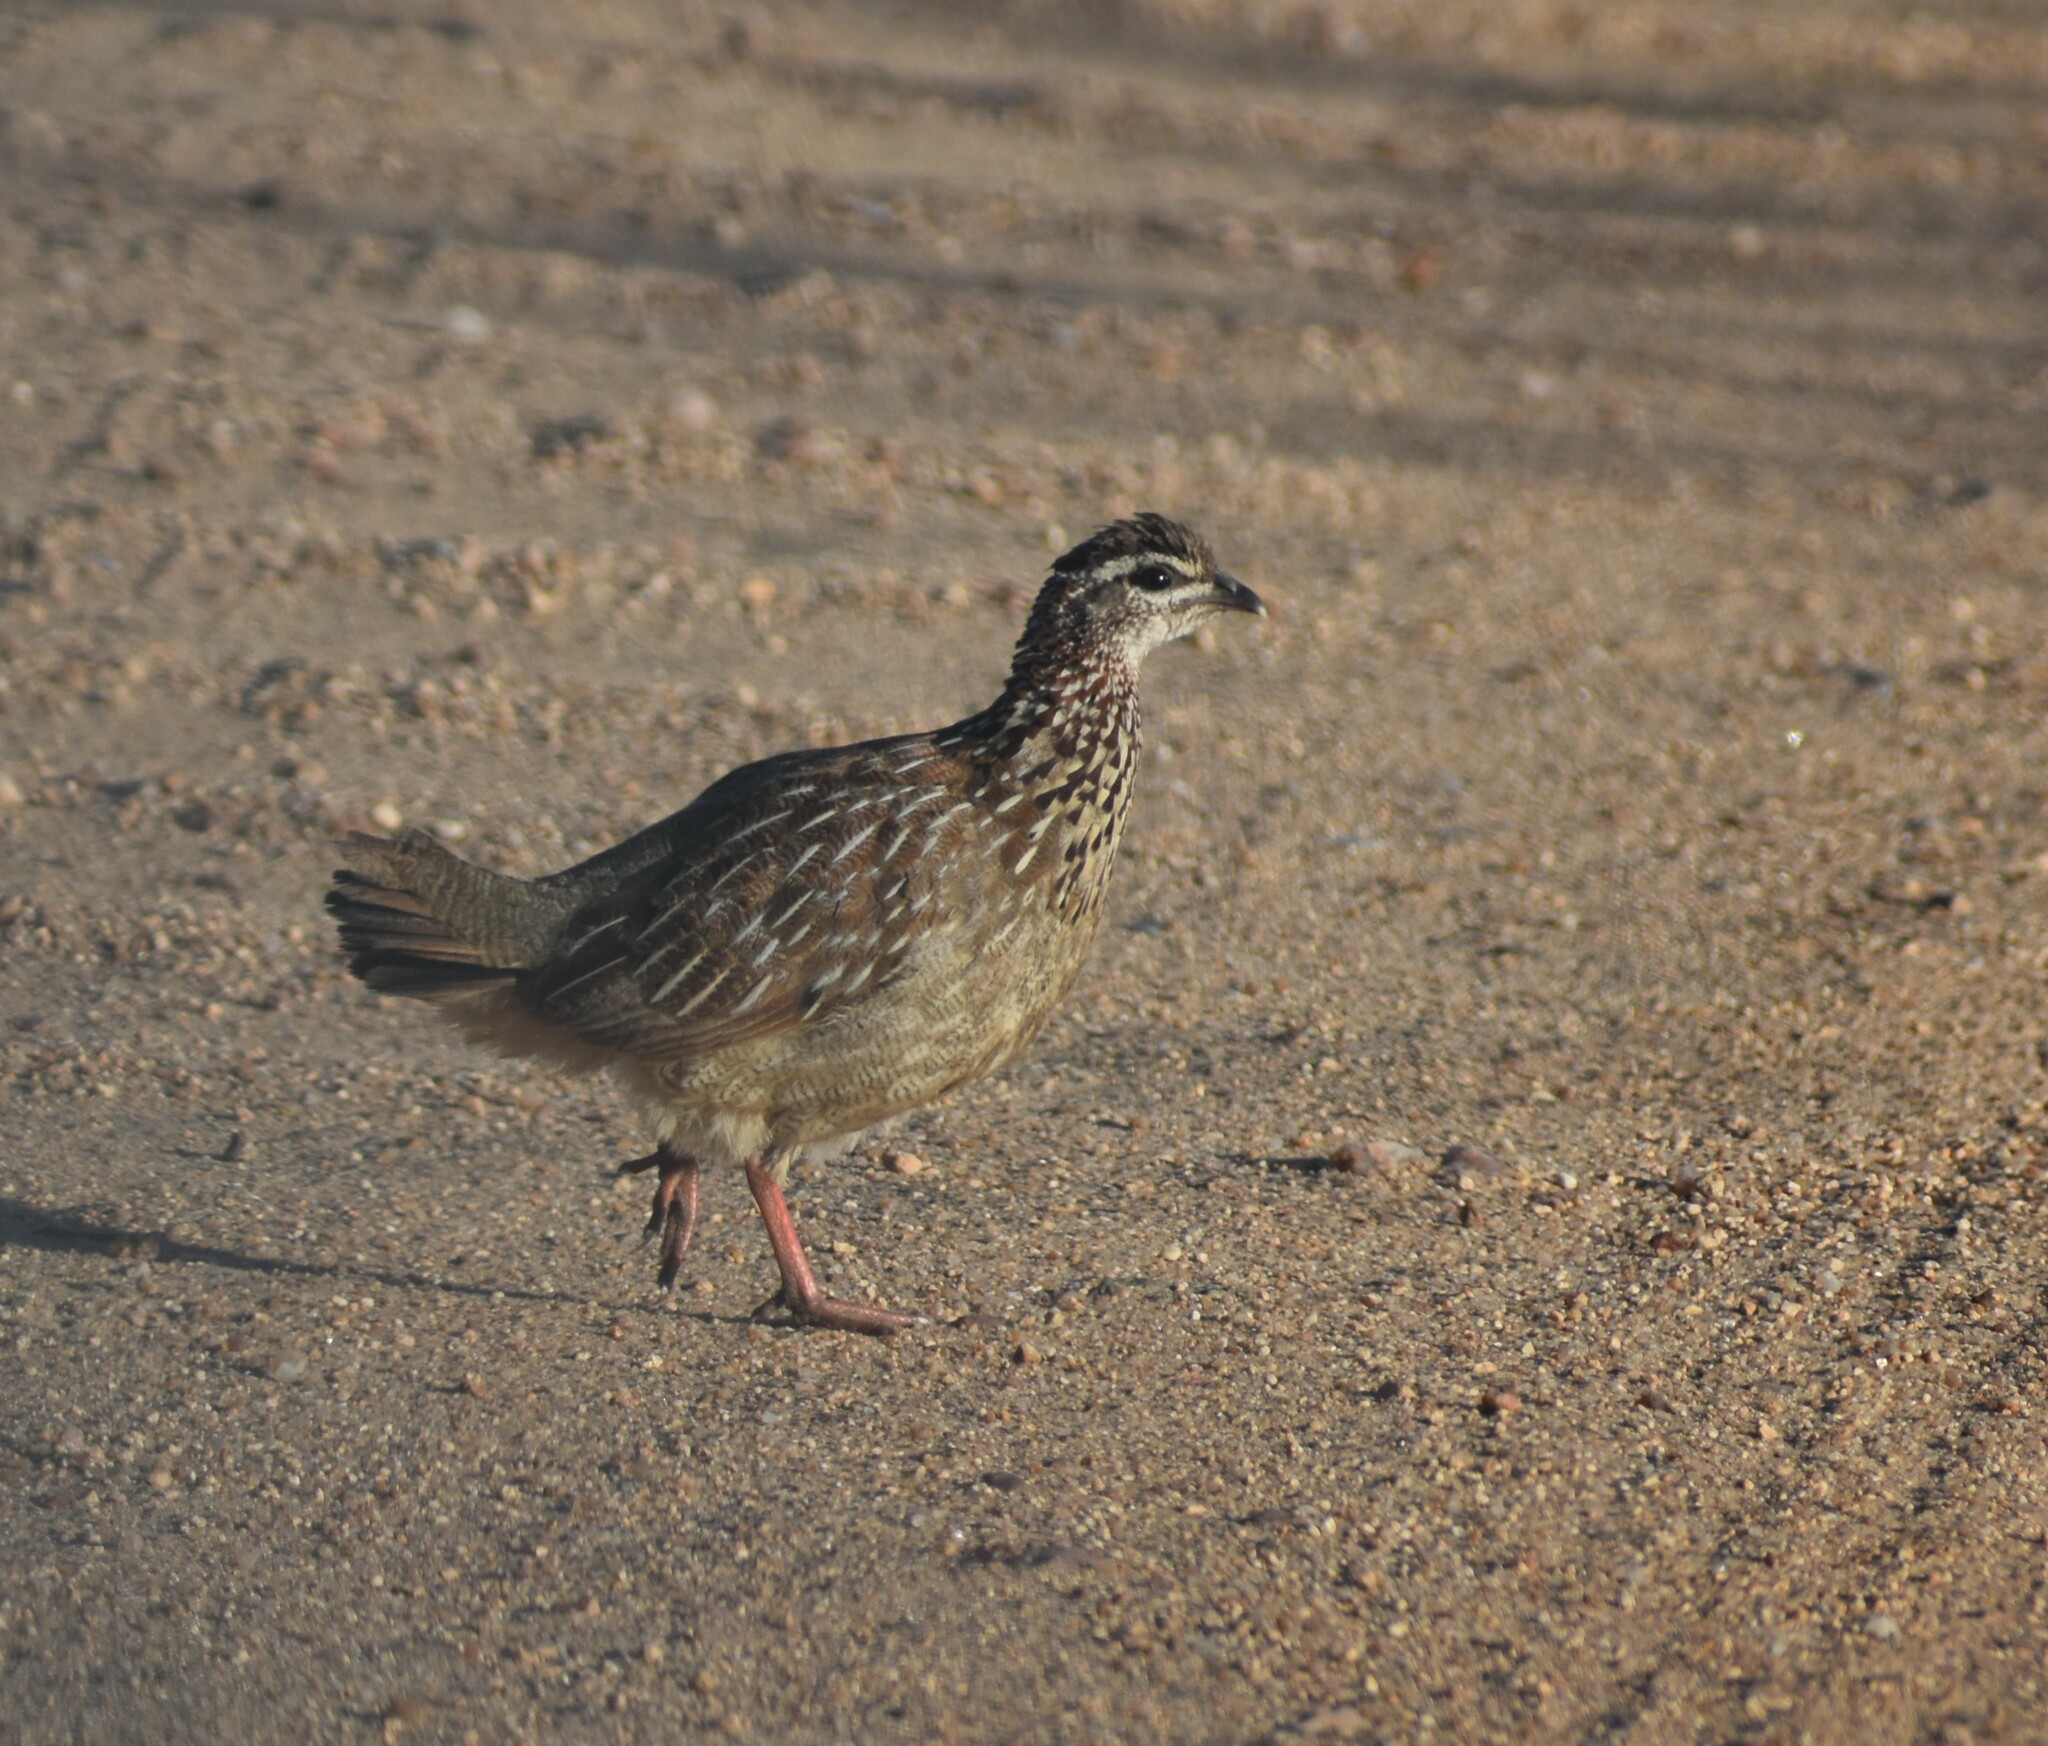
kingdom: Animalia
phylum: Chordata
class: Aves
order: Galliformes
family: Phasianidae
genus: Ortygornis
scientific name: Ortygornis sephaena
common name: Crested francolin
